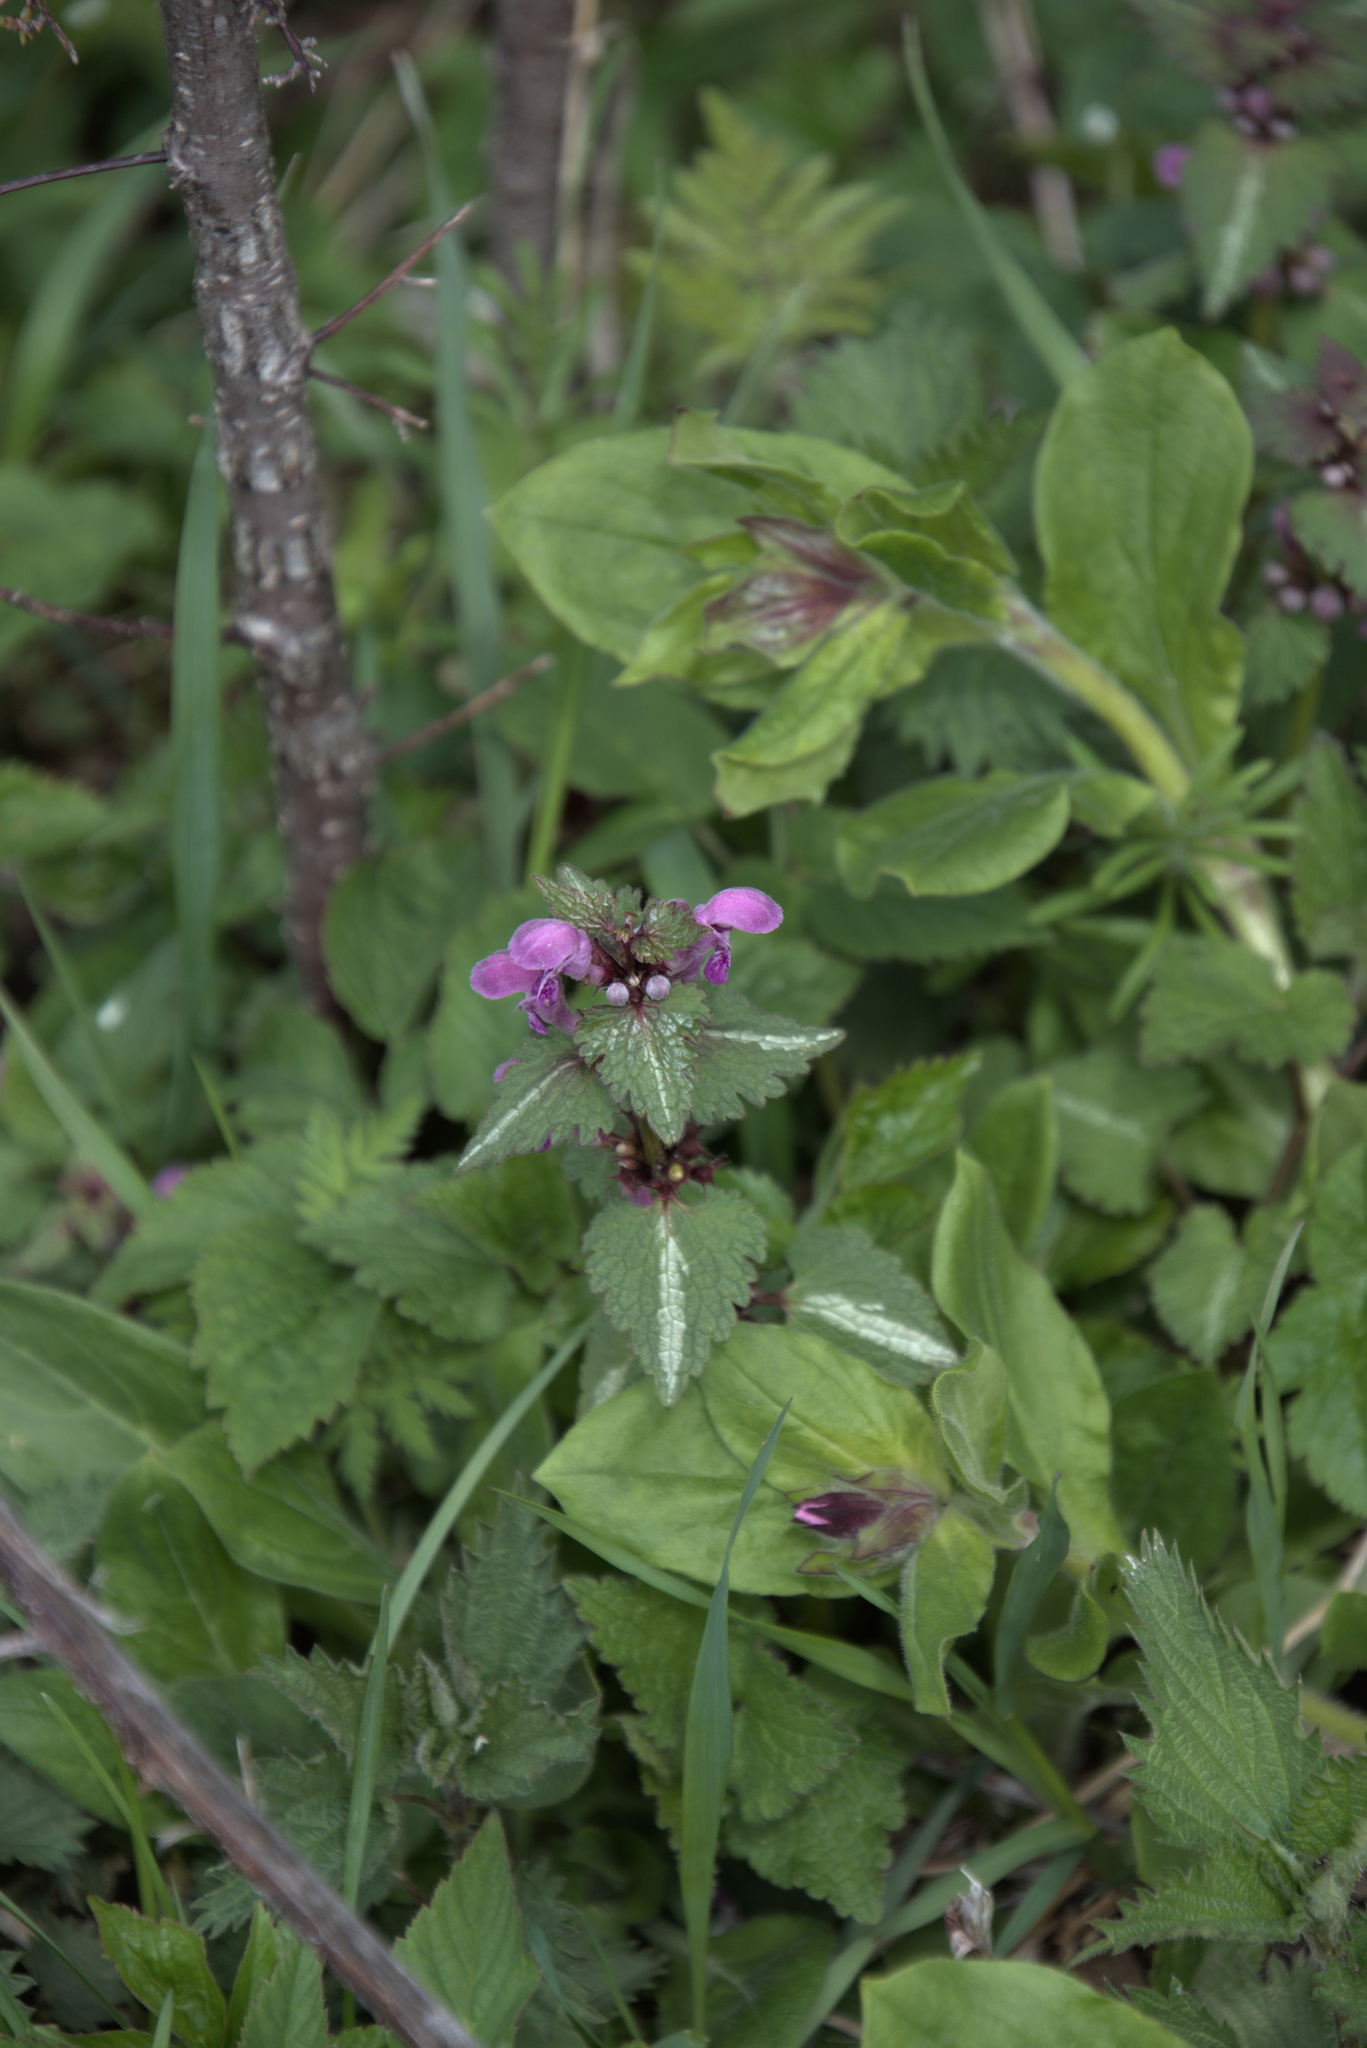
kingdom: Plantae
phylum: Tracheophyta
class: Magnoliopsida
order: Lamiales
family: Lamiaceae
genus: Lamium
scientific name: Lamium maculatum
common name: Spotted dead-nettle
